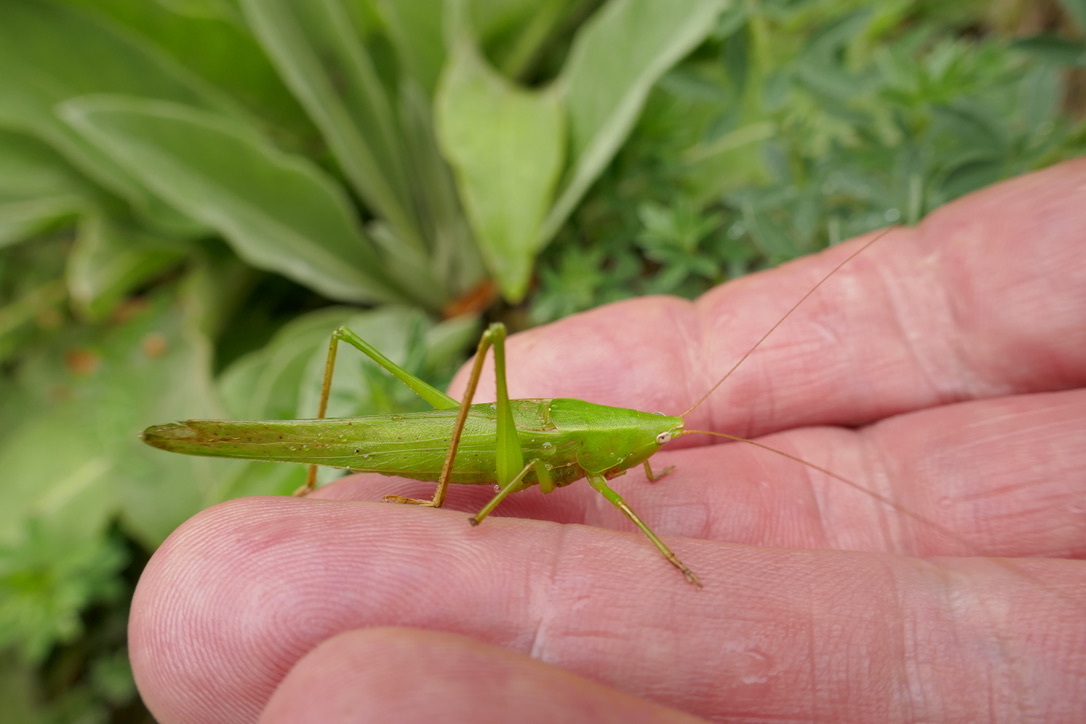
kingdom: Animalia
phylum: Arthropoda
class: Insecta
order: Orthoptera
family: Tettigoniidae
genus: Ruspolia
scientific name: Ruspolia nitidula
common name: Large conehead
